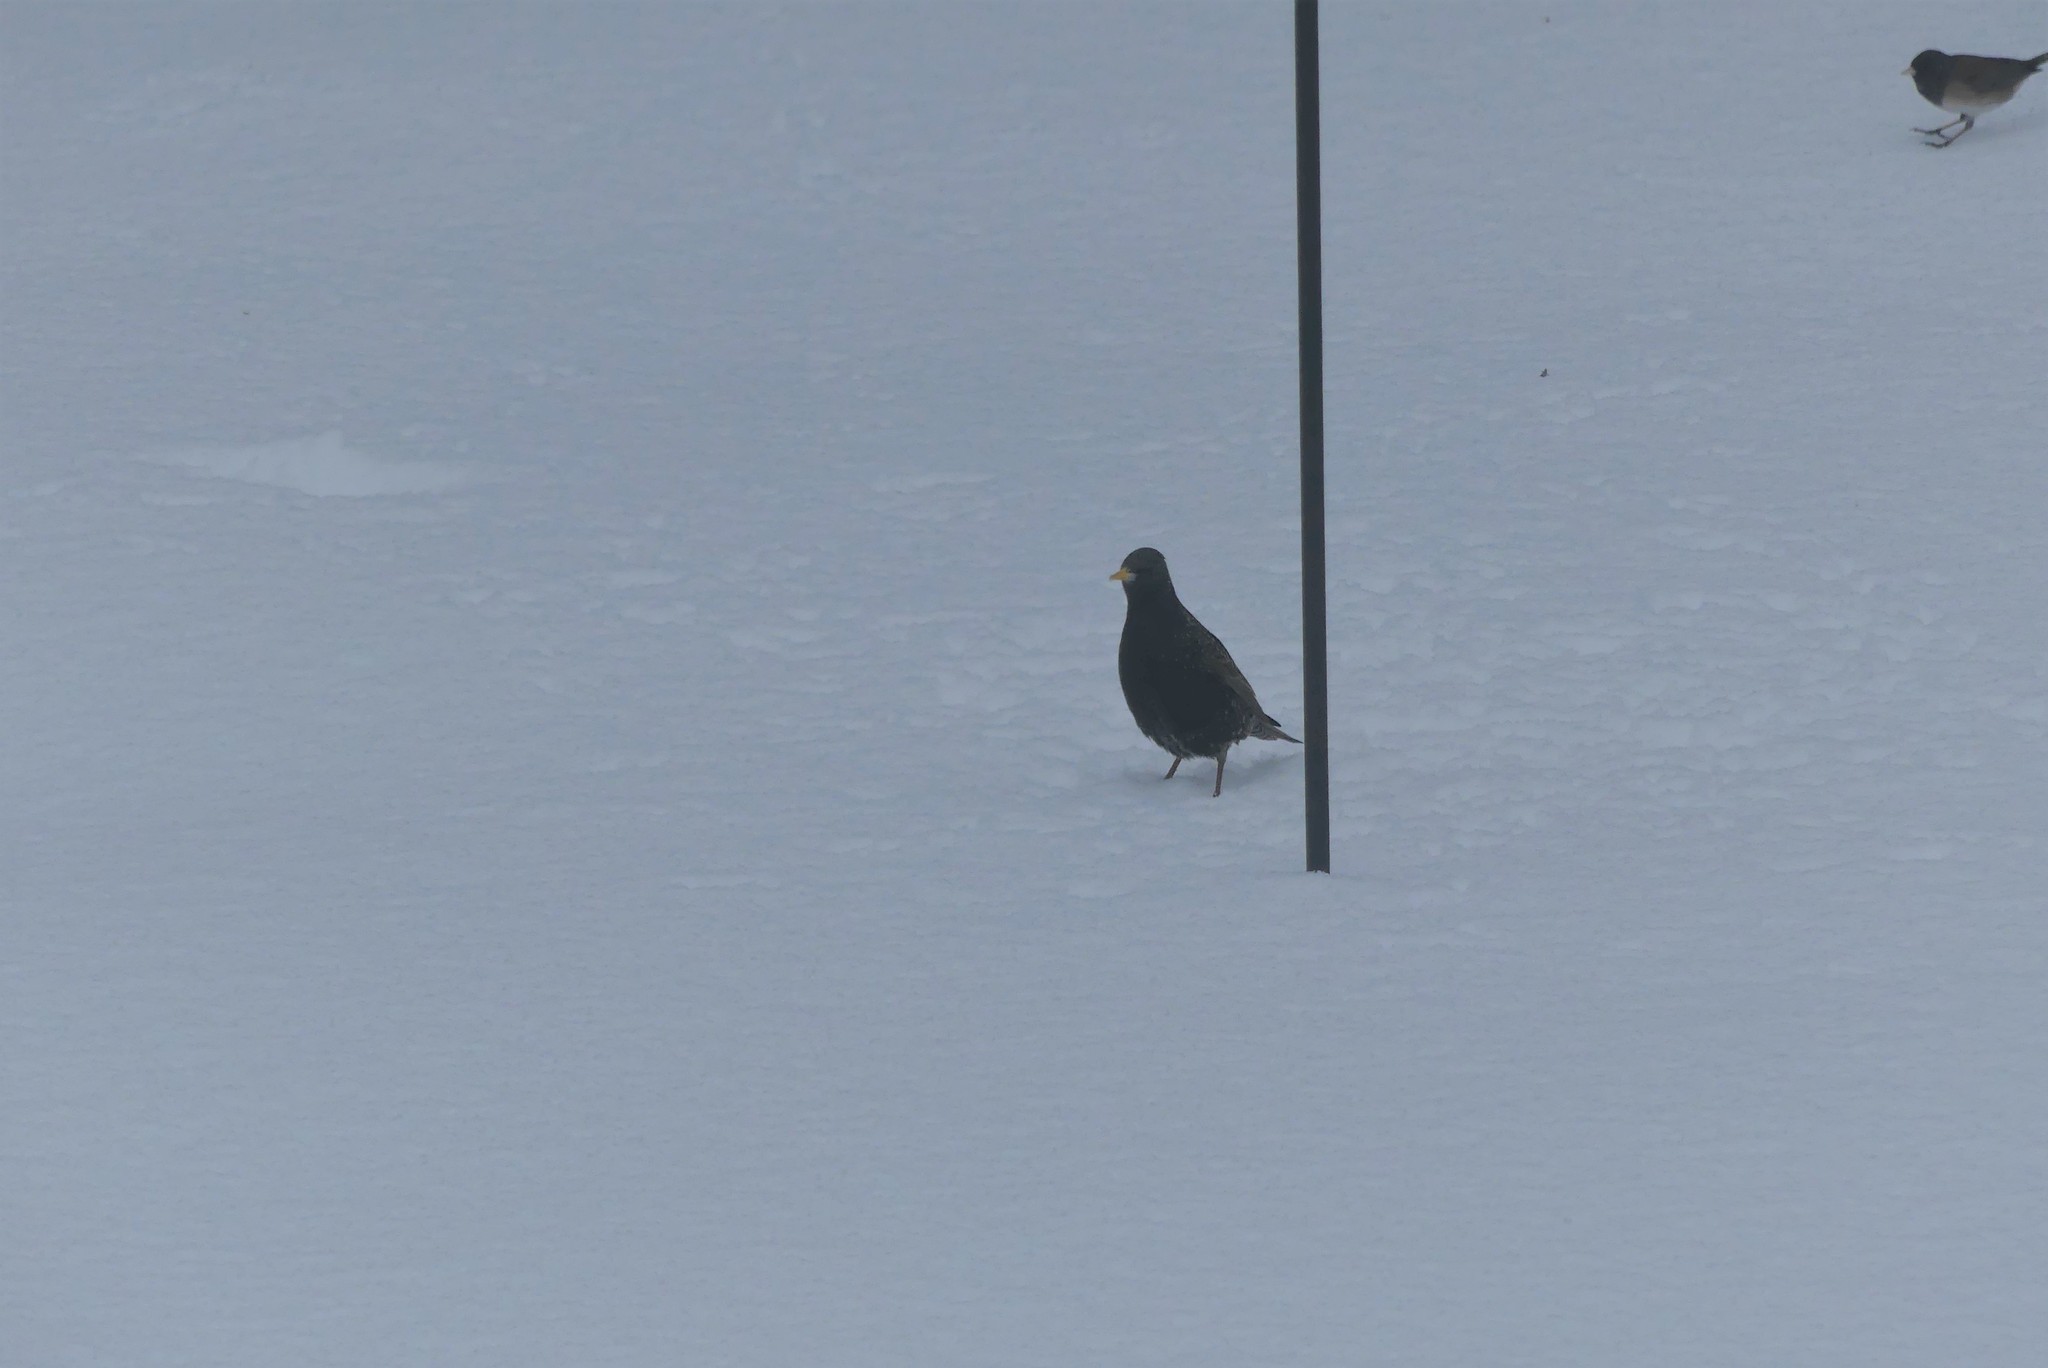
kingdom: Animalia
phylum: Chordata
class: Aves
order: Passeriformes
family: Sturnidae
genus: Sturnus
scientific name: Sturnus vulgaris
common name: Common starling
